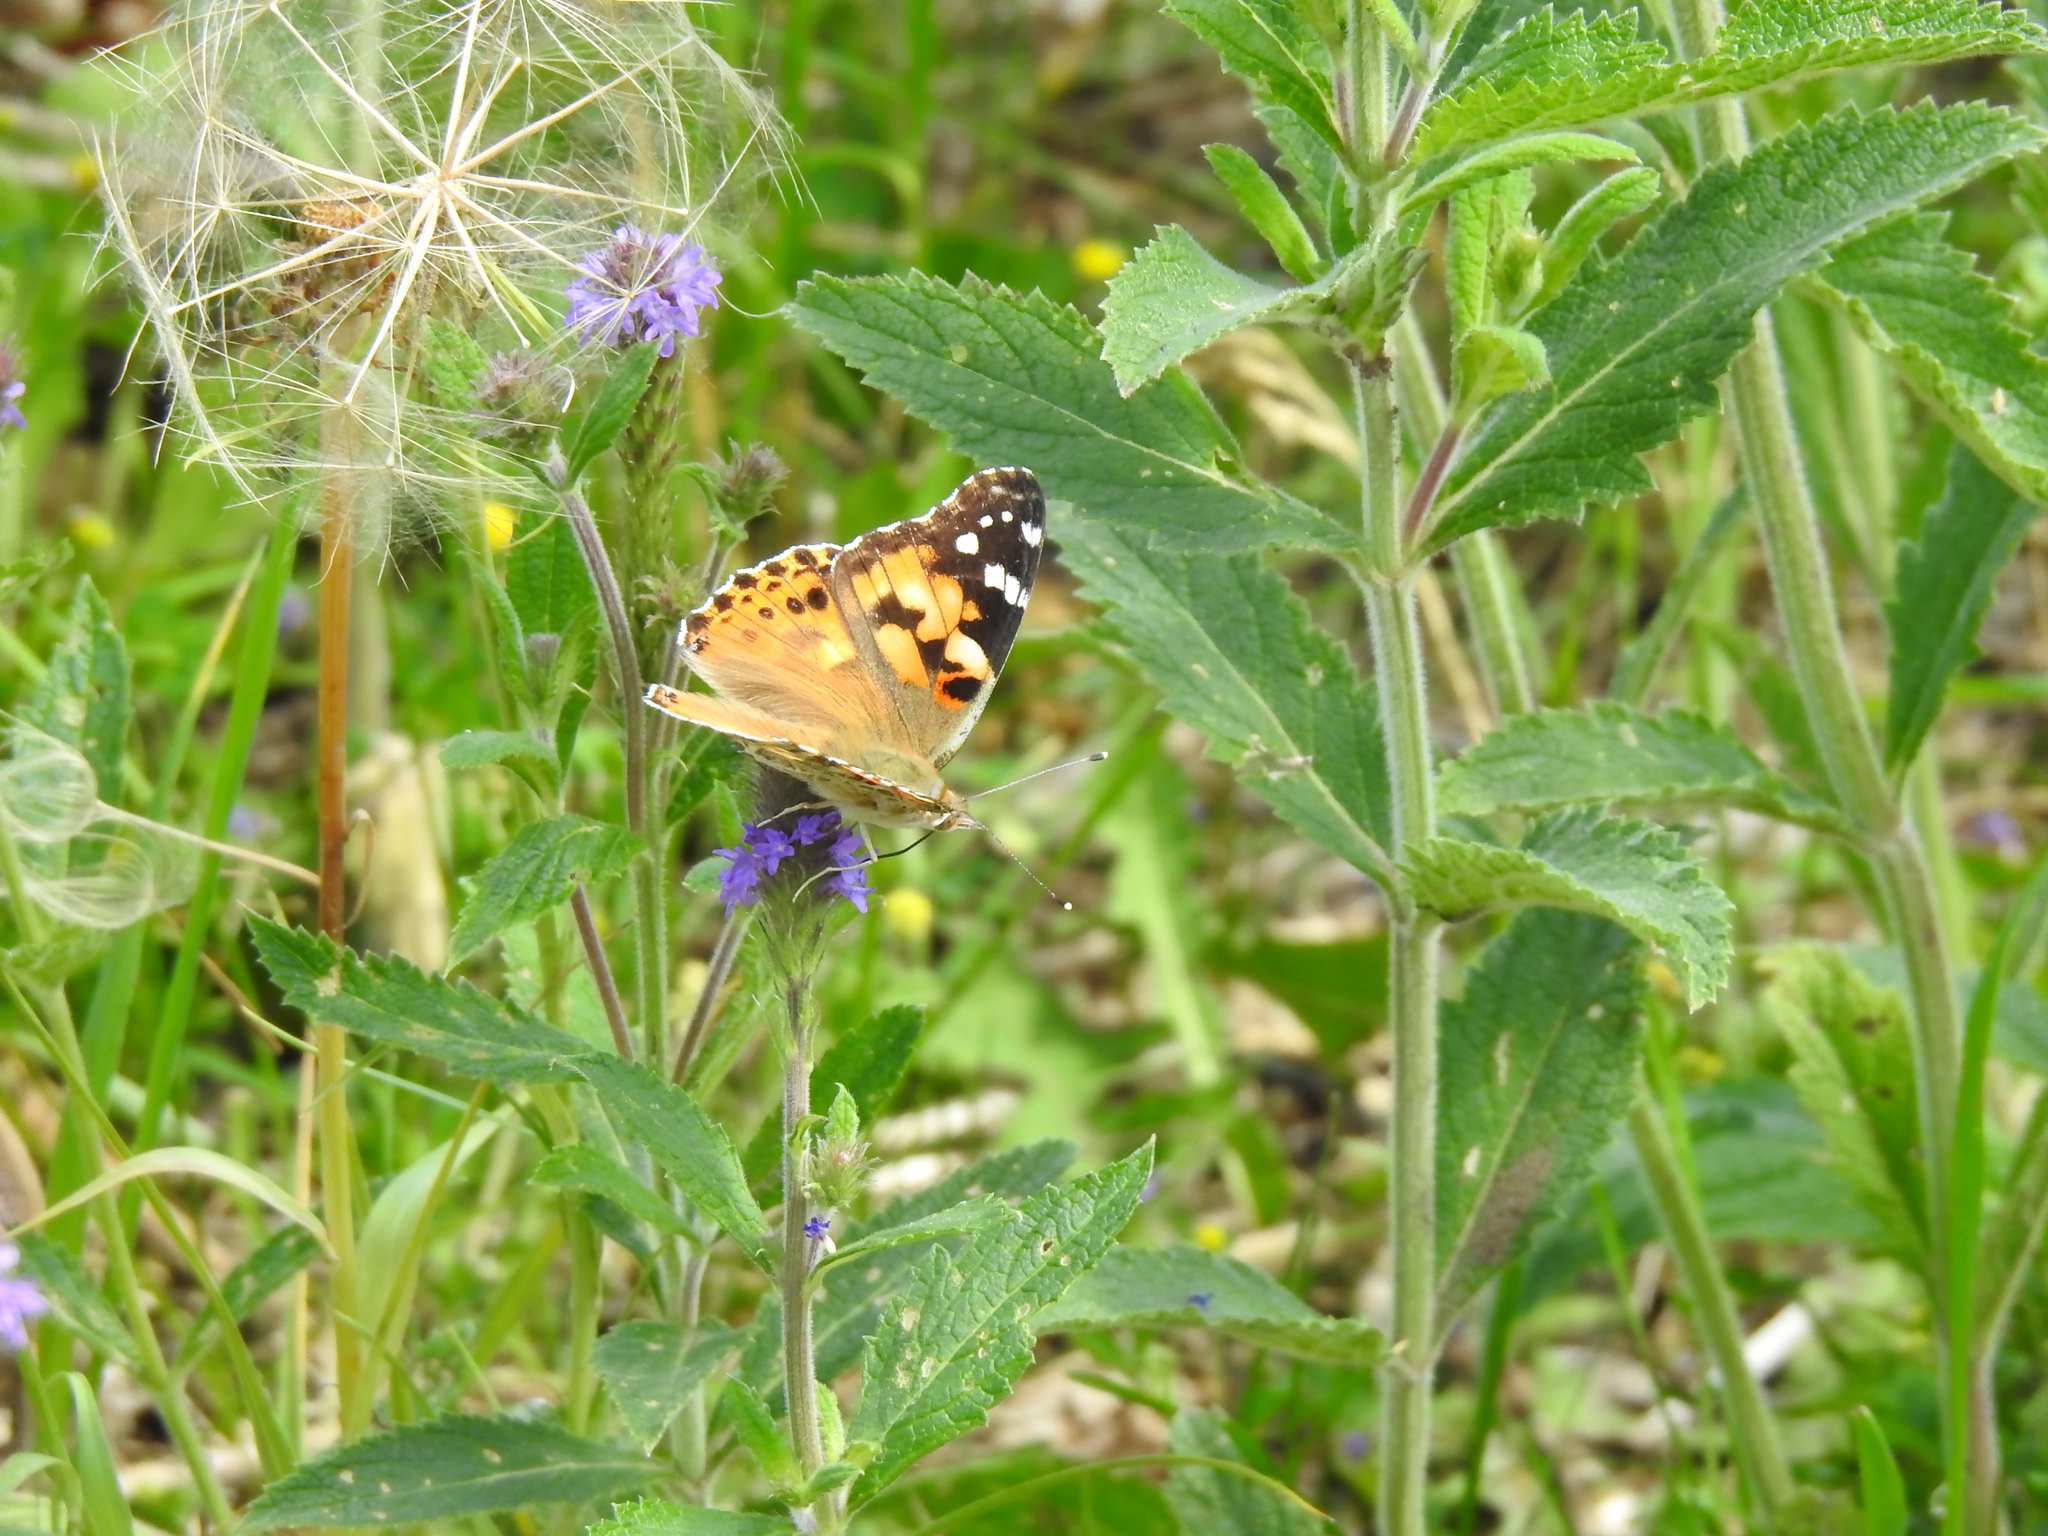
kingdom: Animalia
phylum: Arthropoda
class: Insecta
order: Lepidoptera
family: Nymphalidae
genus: Vanessa
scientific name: Vanessa cardui
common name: Painted lady
